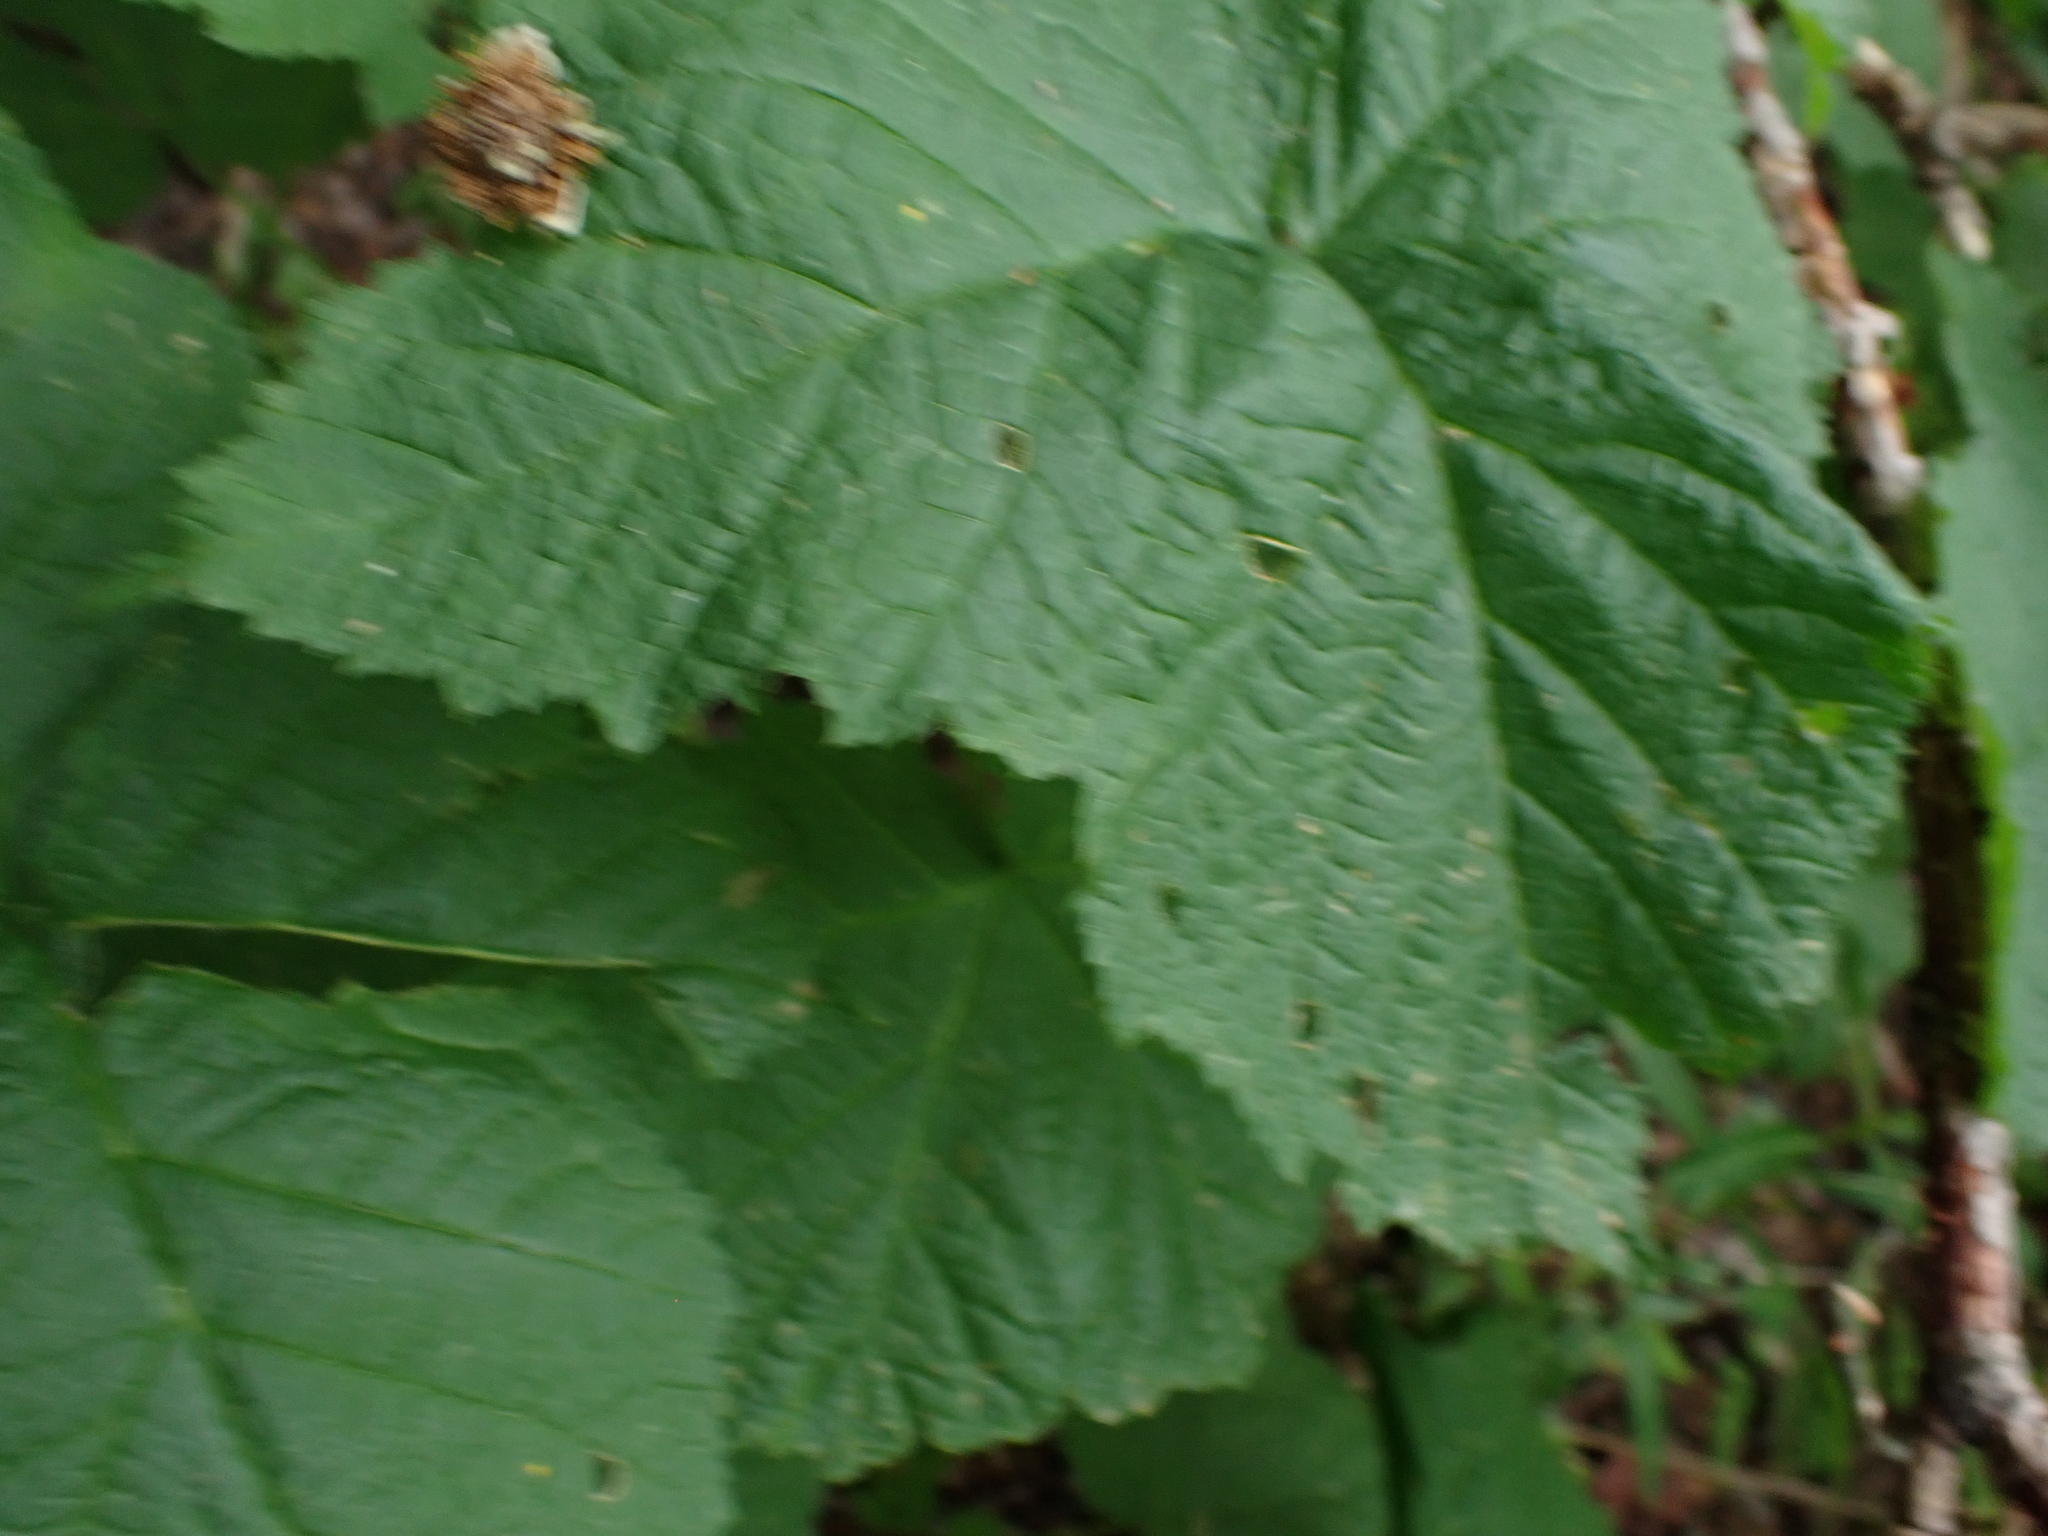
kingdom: Plantae
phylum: Tracheophyta
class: Magnoliopsida
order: Rosales
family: Rosaceae
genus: Rubus
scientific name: Rubus parviflorus
